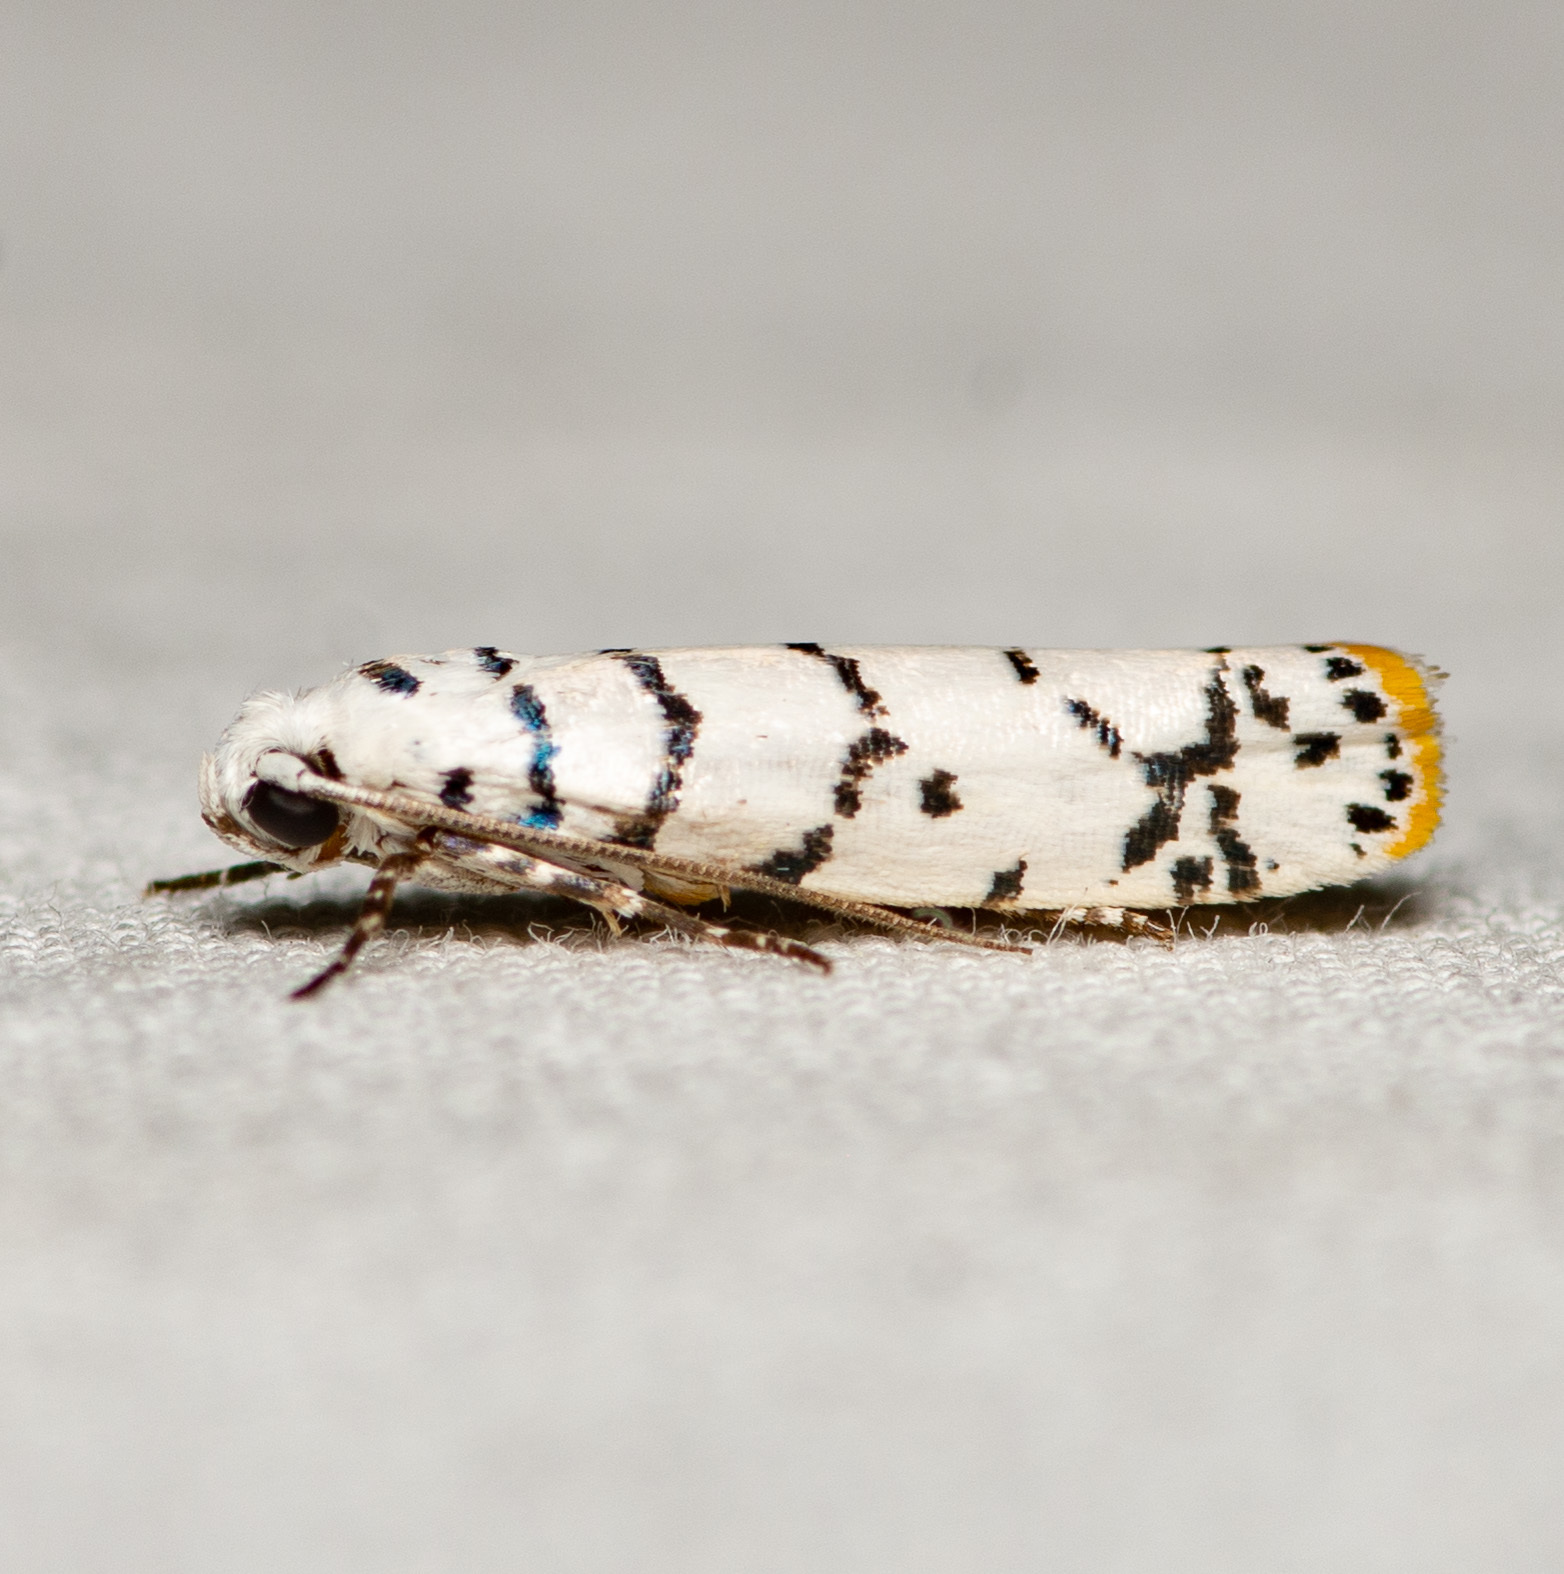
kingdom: Animalia
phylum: Arthropoda
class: Insecta
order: Lepidoptera
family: Ethmiidae
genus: Ethmia
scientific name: Ethmia delliella
